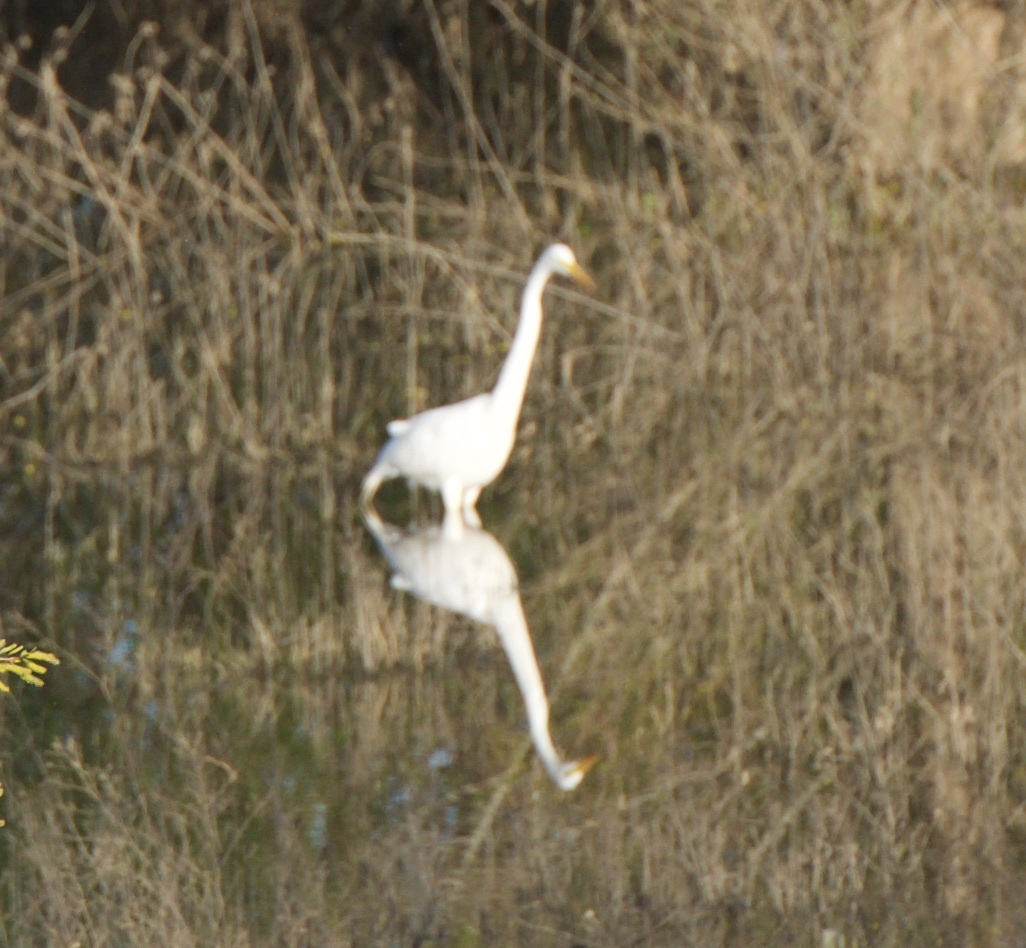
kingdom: Animalia
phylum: Chordata
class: Aves
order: Pelecaniformes
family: Ardeidae
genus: Ardea
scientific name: Ardea alba
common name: Great egret
